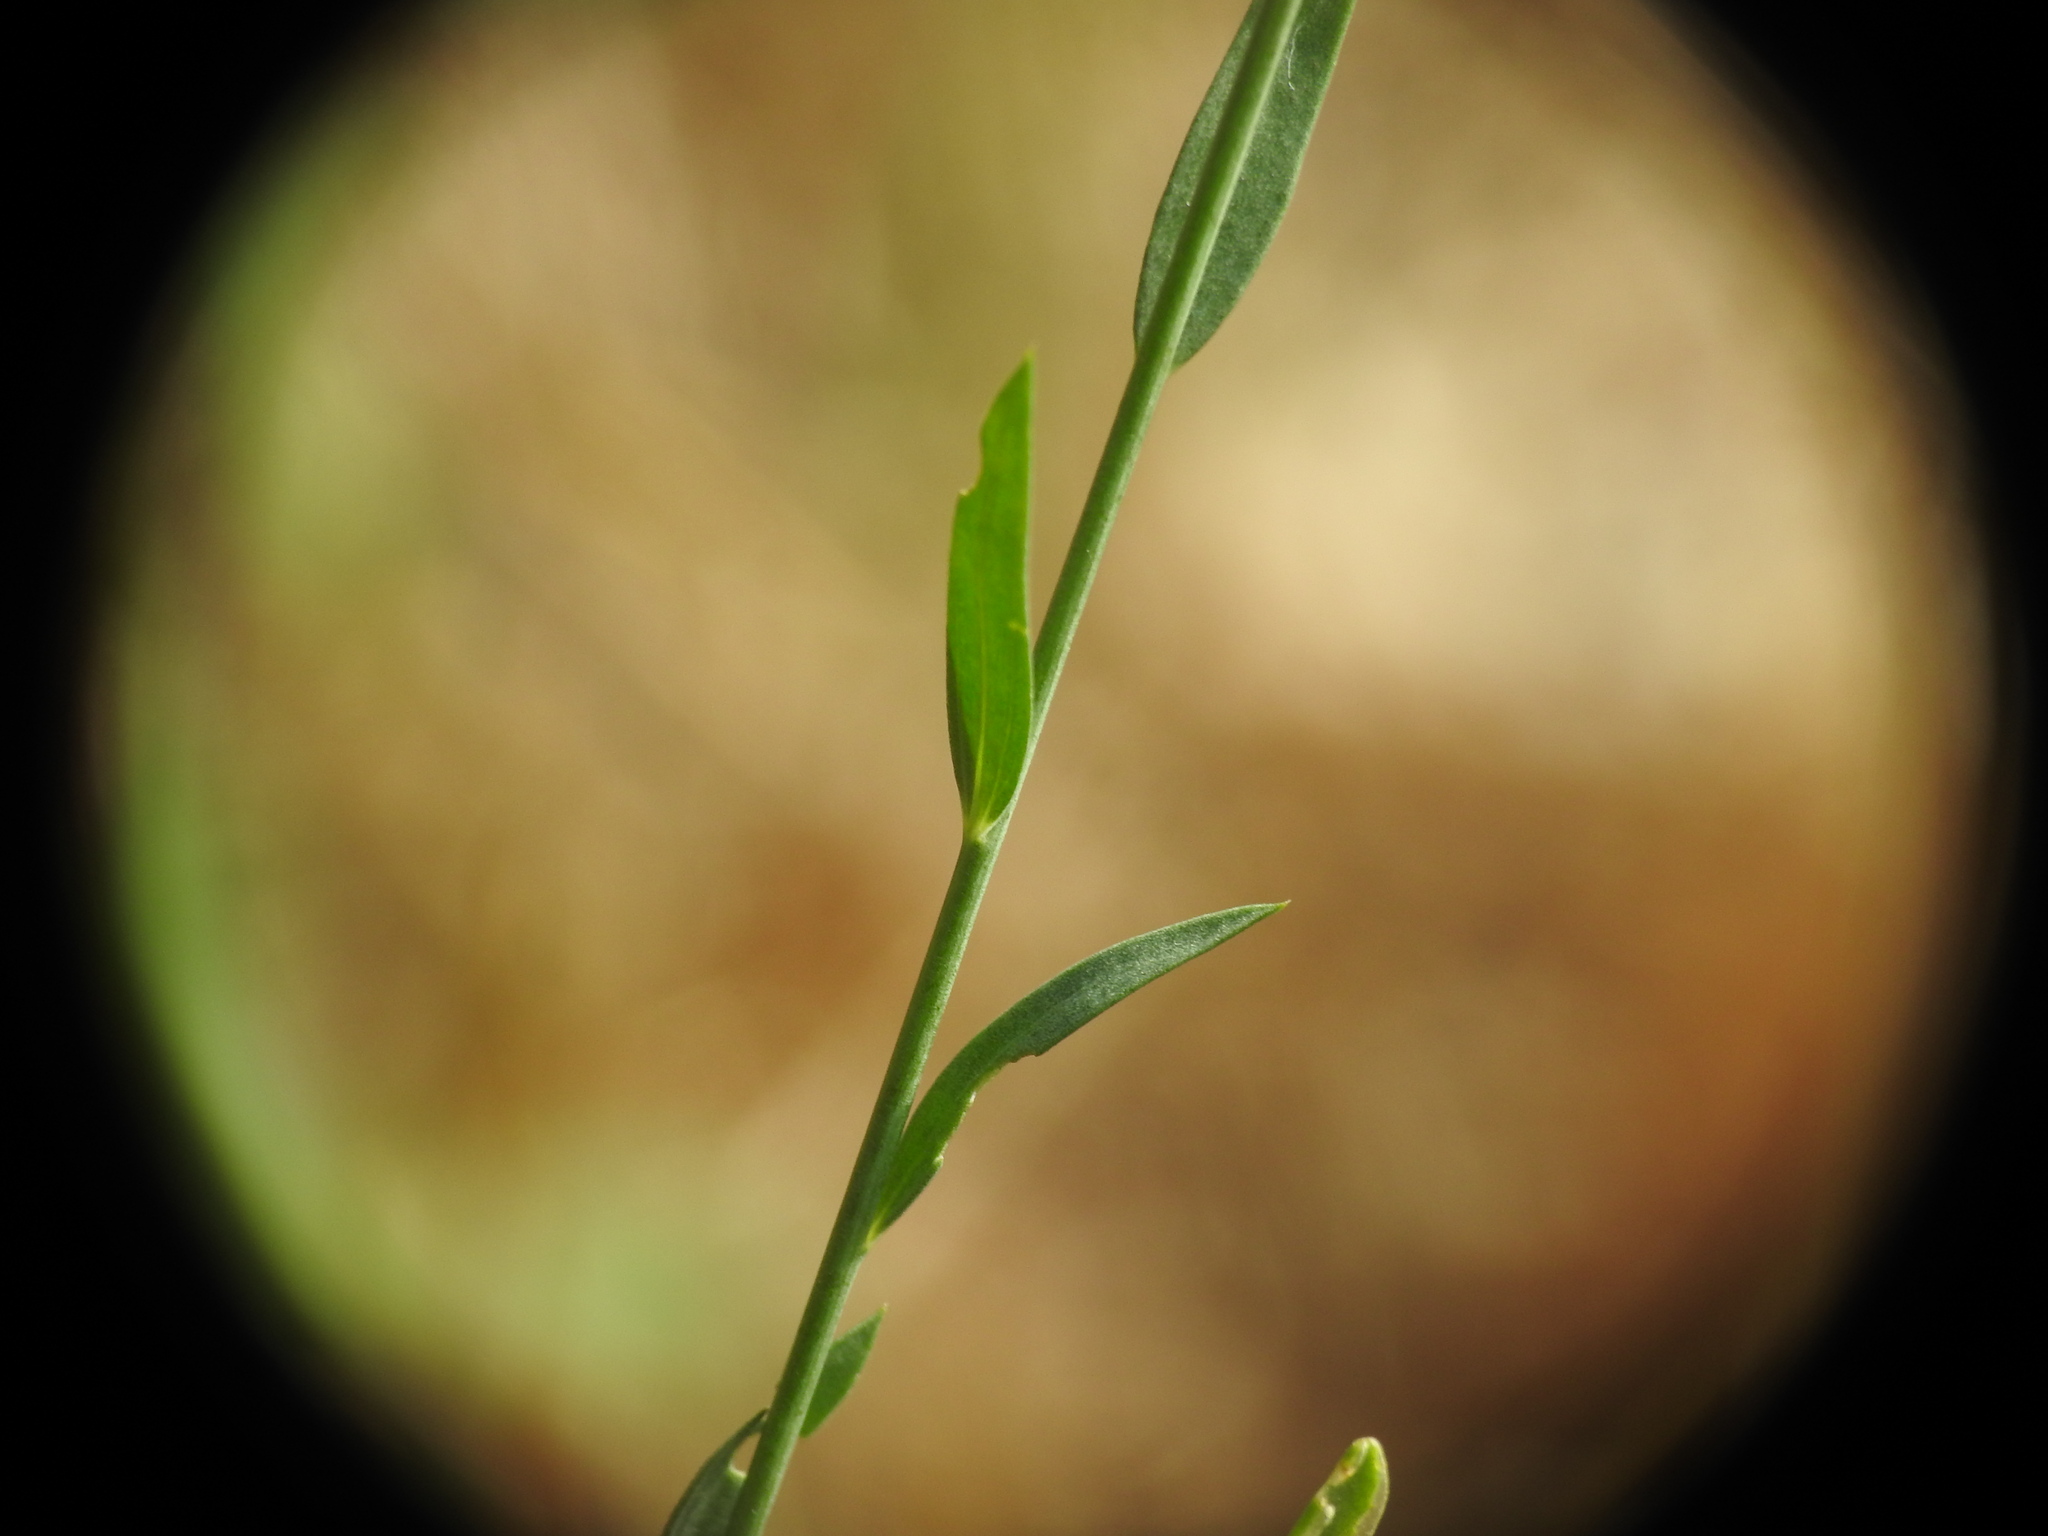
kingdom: Plantae
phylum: Tracheophyta
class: Magnoliopsida
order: Malpighiales
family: Linaceae
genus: Linum
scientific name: Linum bienne
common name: Pale flax
